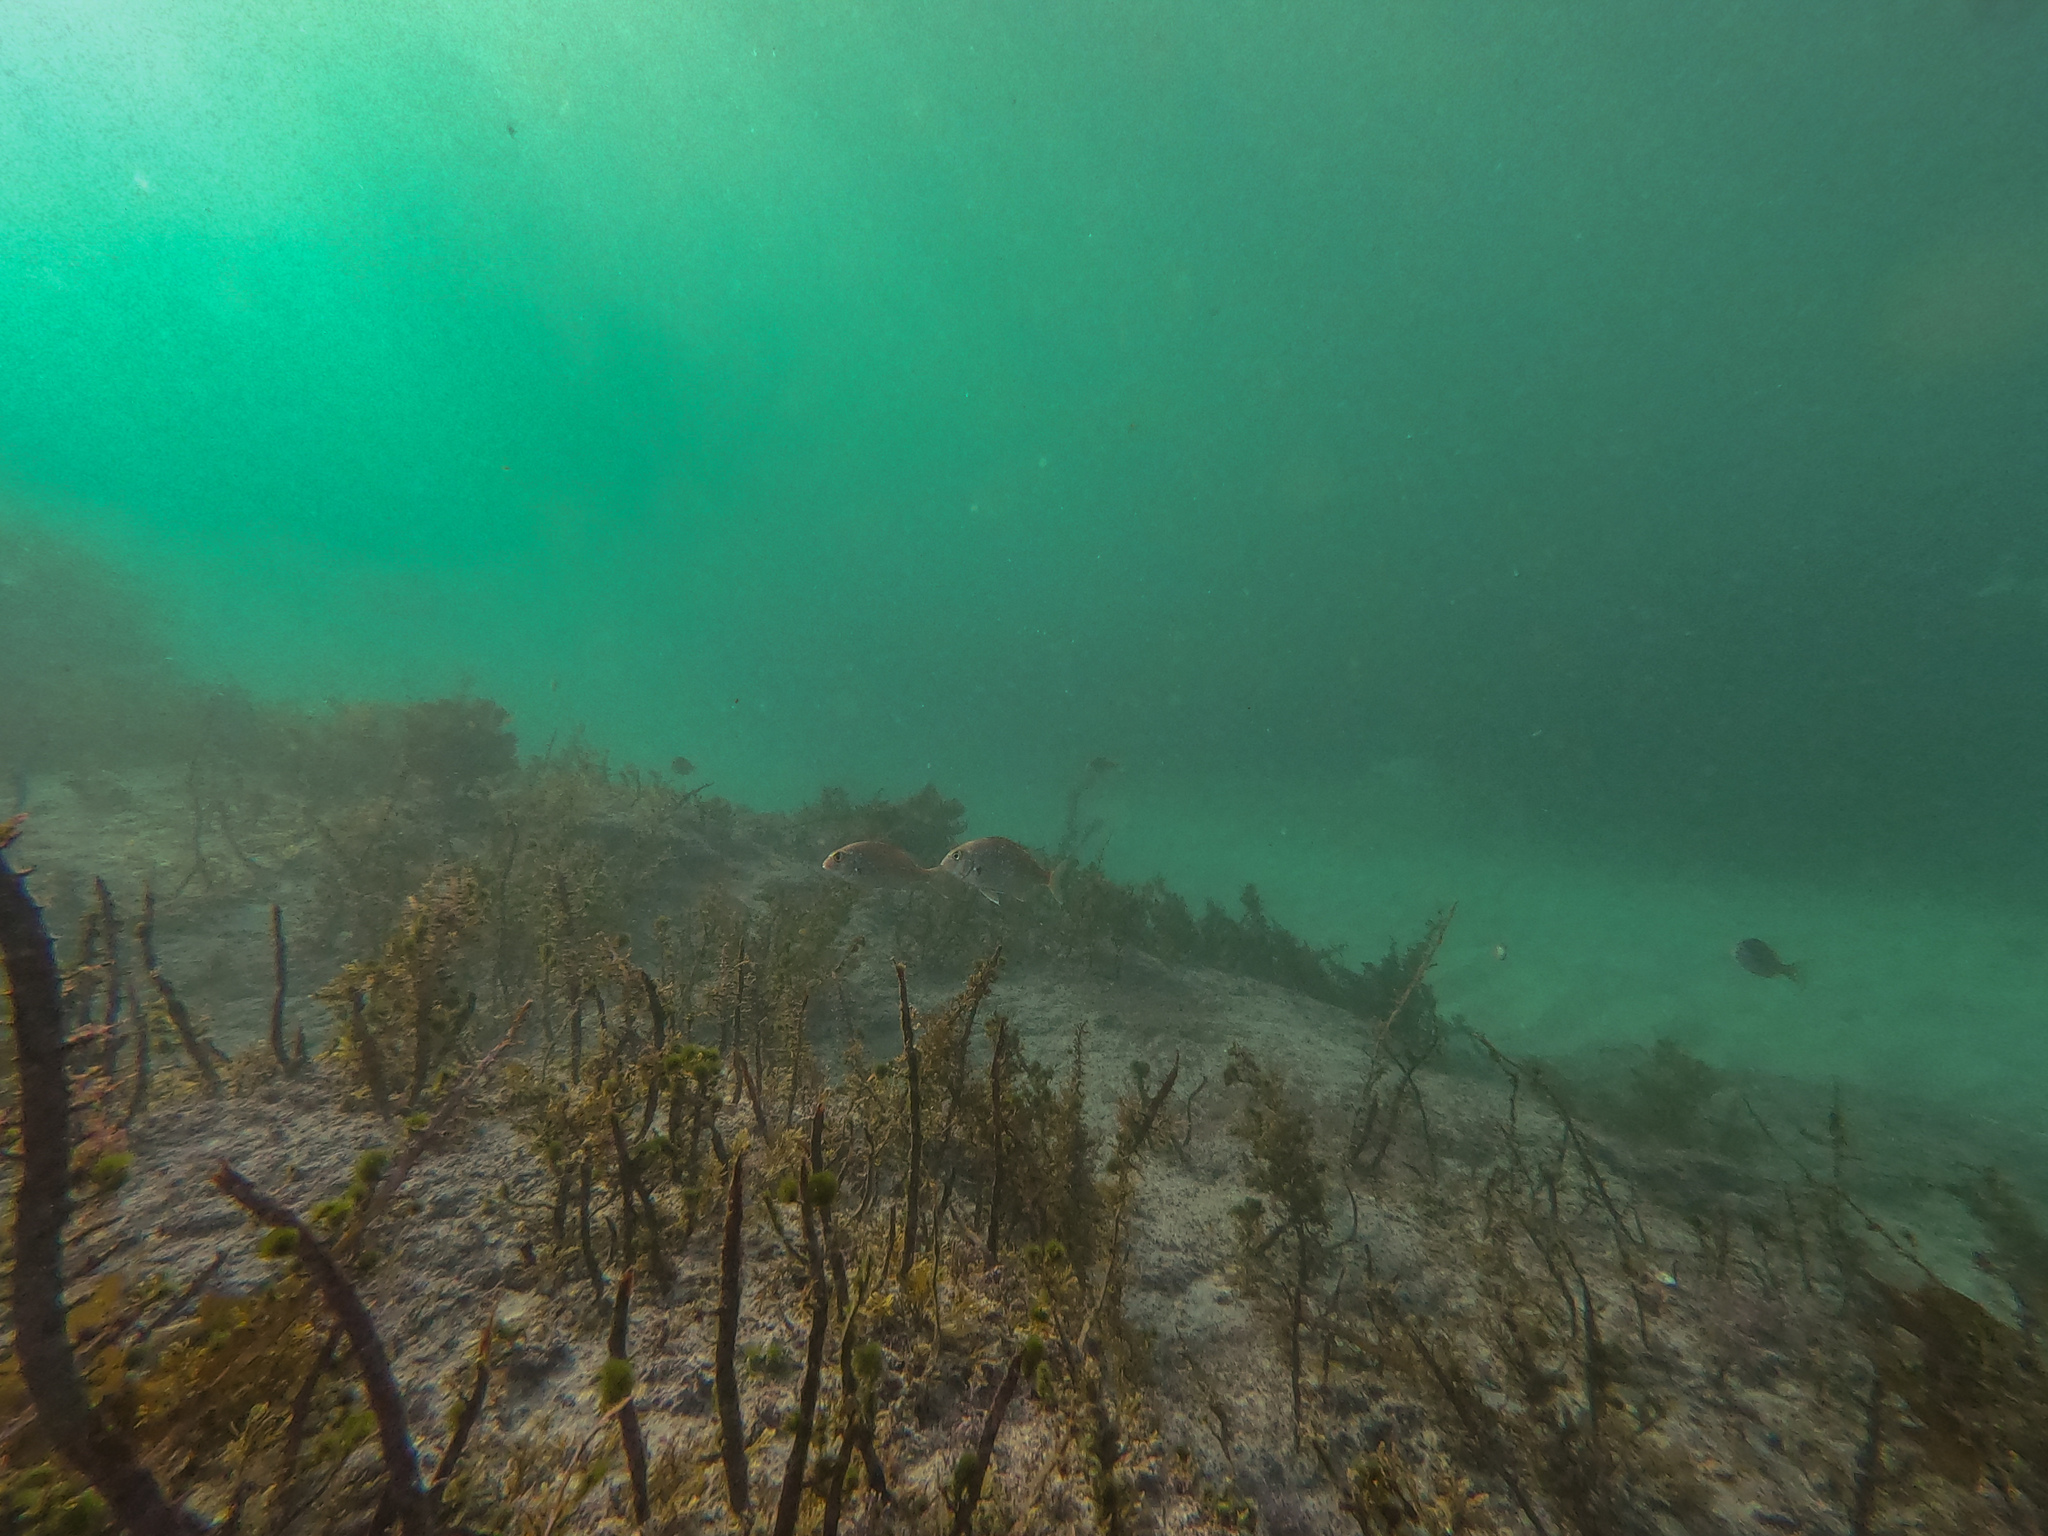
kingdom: Animalia
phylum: Chordata
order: Perciformes
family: Sparidae
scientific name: Sparidae
